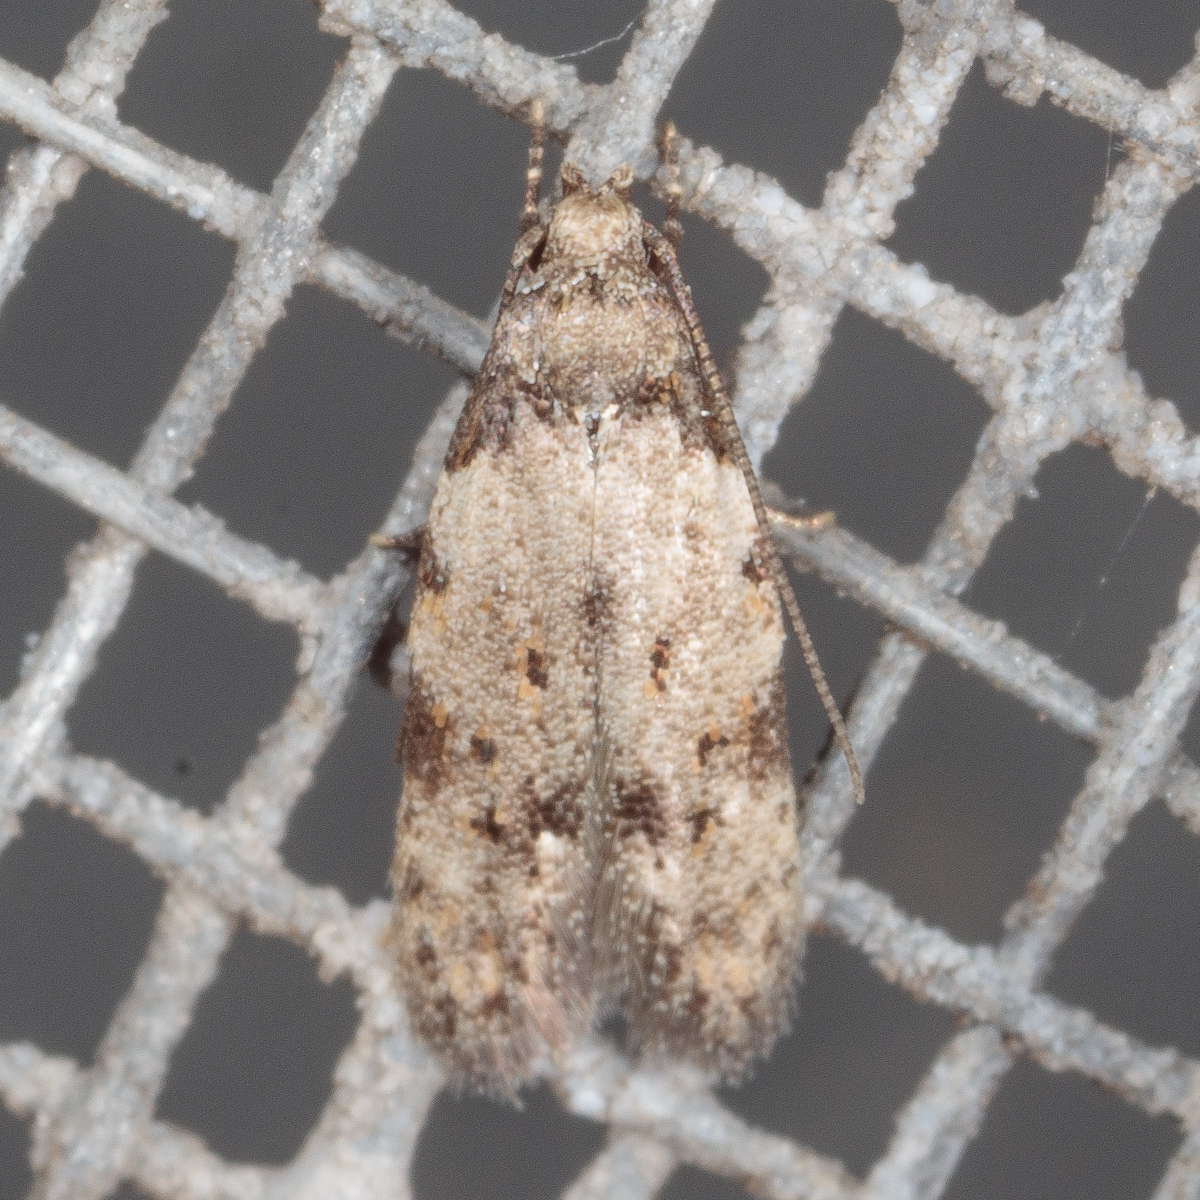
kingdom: Animalia
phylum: Arthropoda
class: Insecta
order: Lepidoptera
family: Autostichidae
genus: Taygete
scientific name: Taygete attributella
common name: Triangle-marked twirler moth
